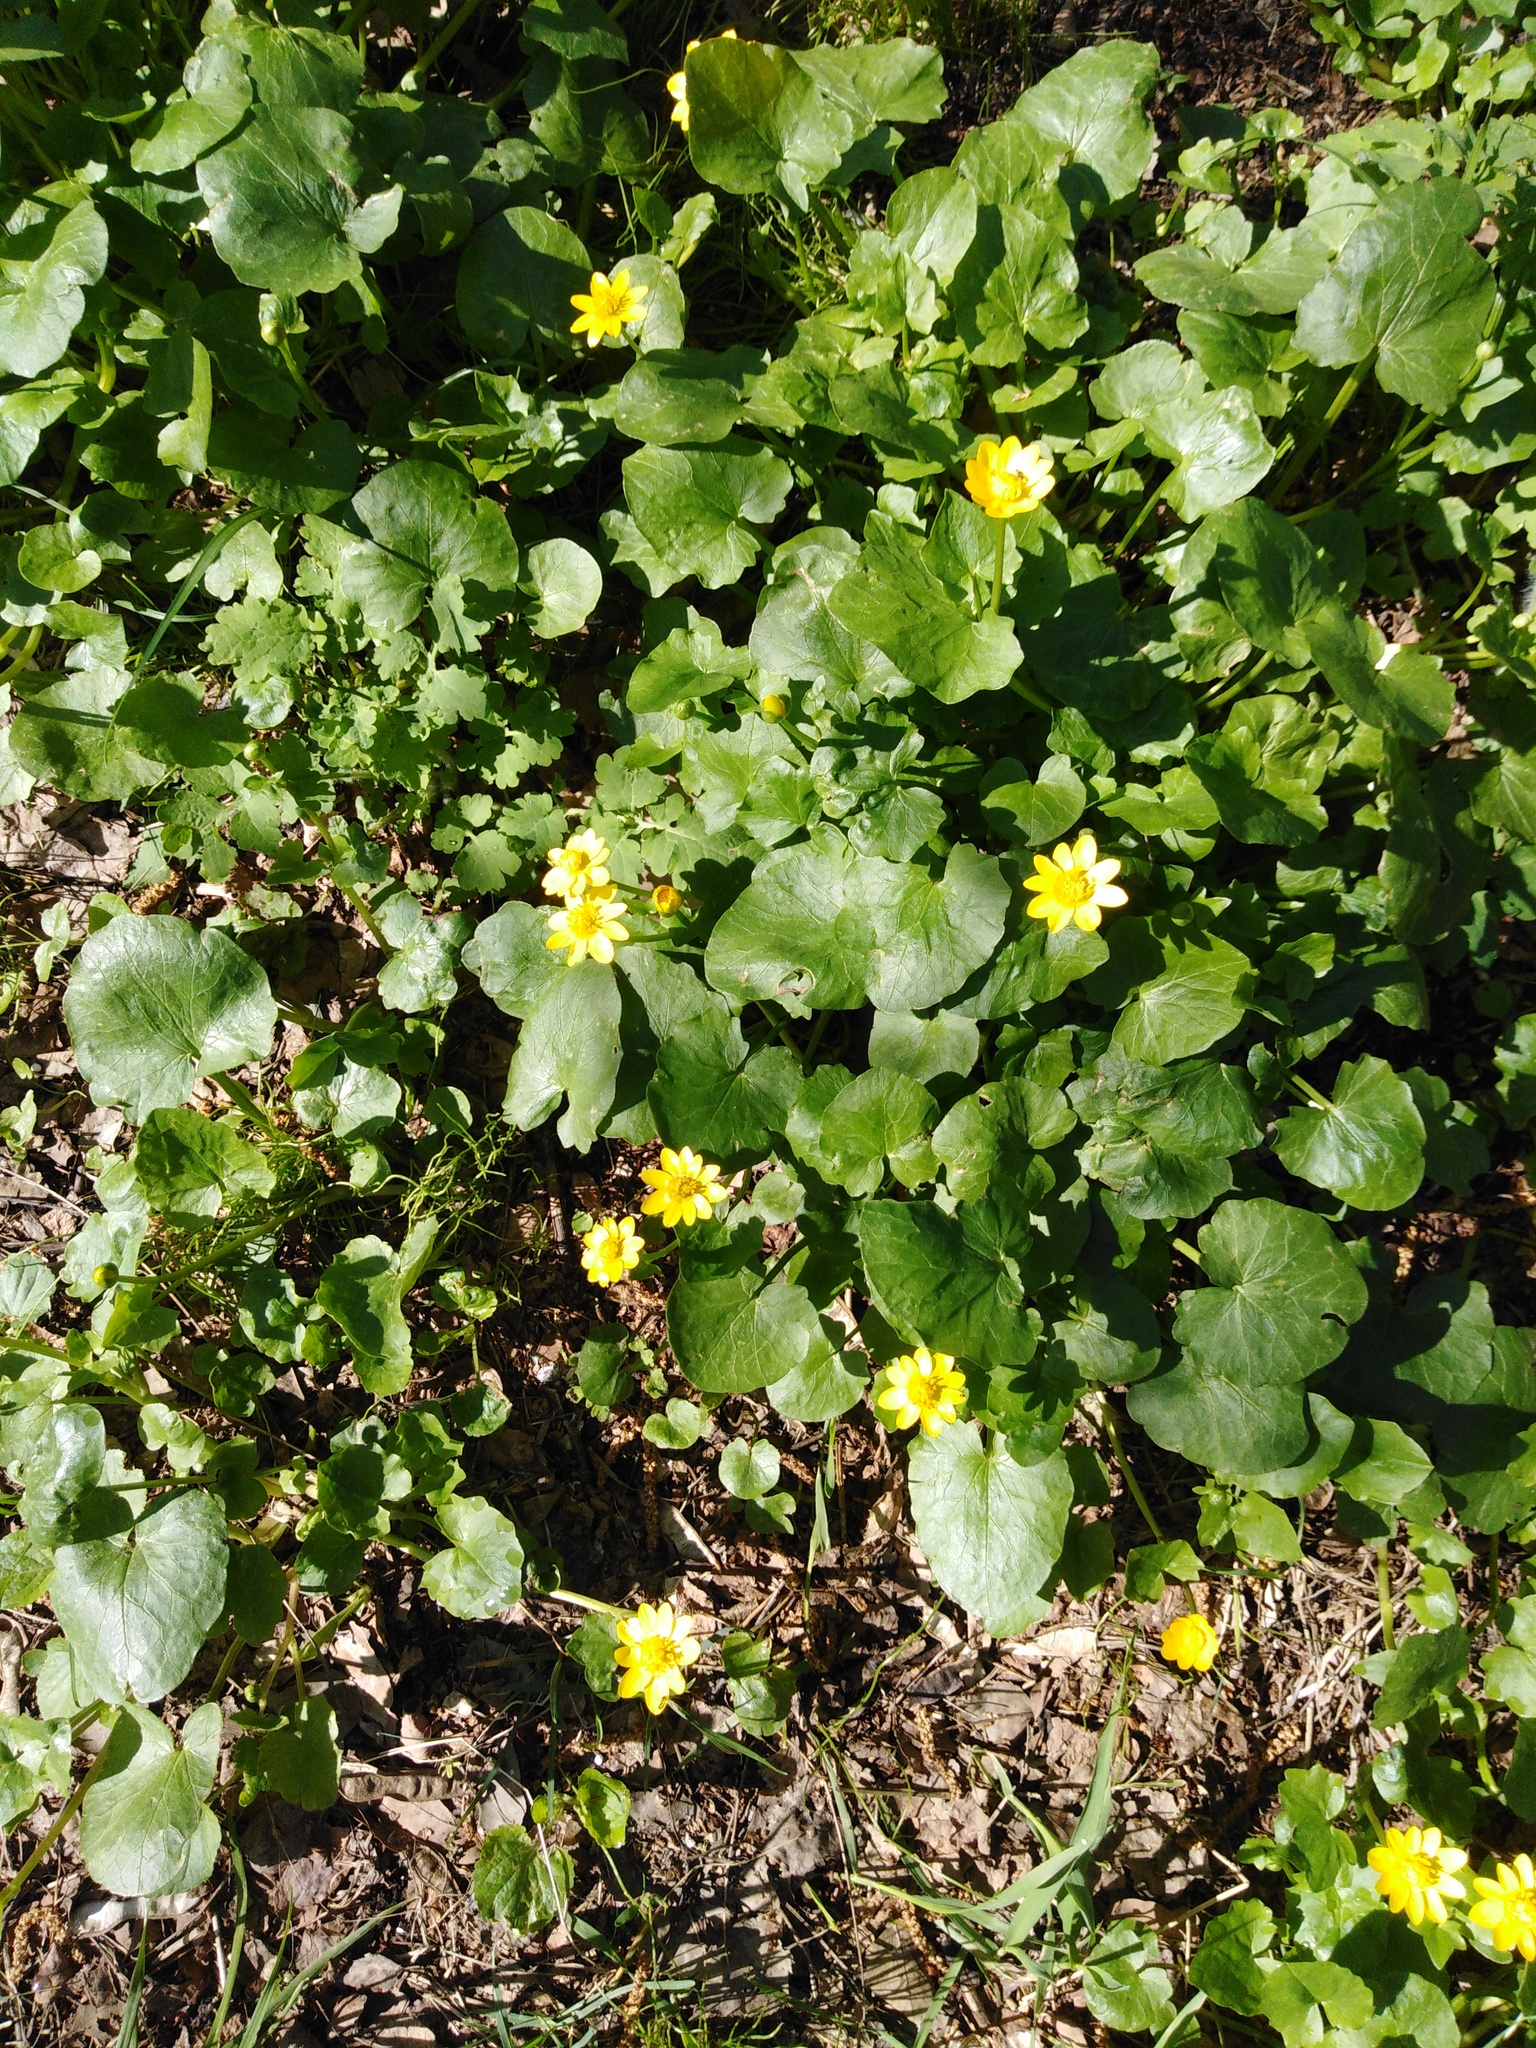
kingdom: Plantae
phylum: Tracheophyta
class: Magnoliopsida
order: Ranunculales
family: Ranunculaceae
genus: Ficaria
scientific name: Ficaria verna
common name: Lesser celandine
